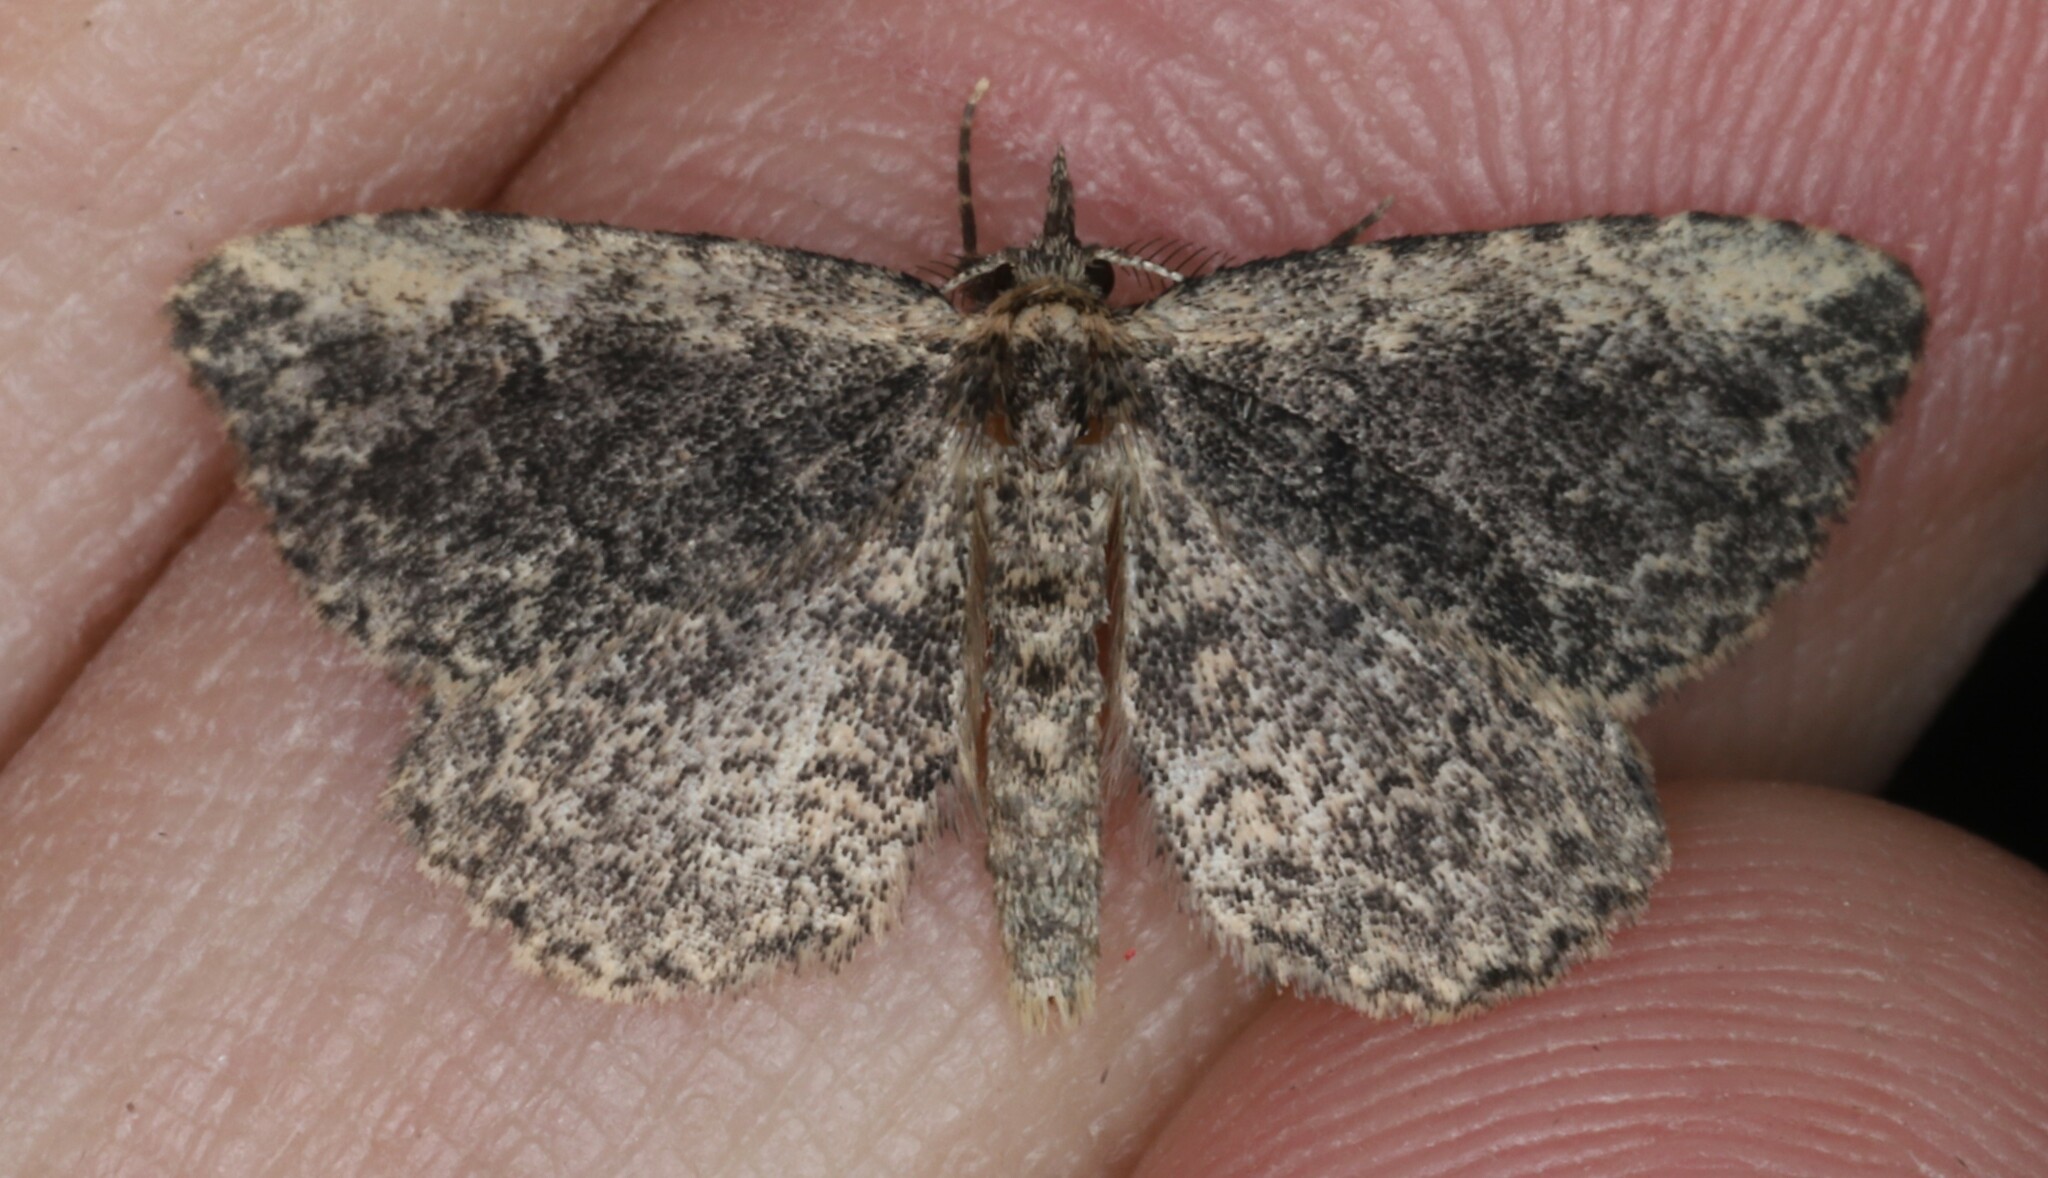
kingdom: Animalia
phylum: Arthropoda
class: Insecta
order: Lepidoptera
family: Erebidae
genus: Mycterophora
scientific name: Mycterophora inexplicata
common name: Pale-edged snout moth
